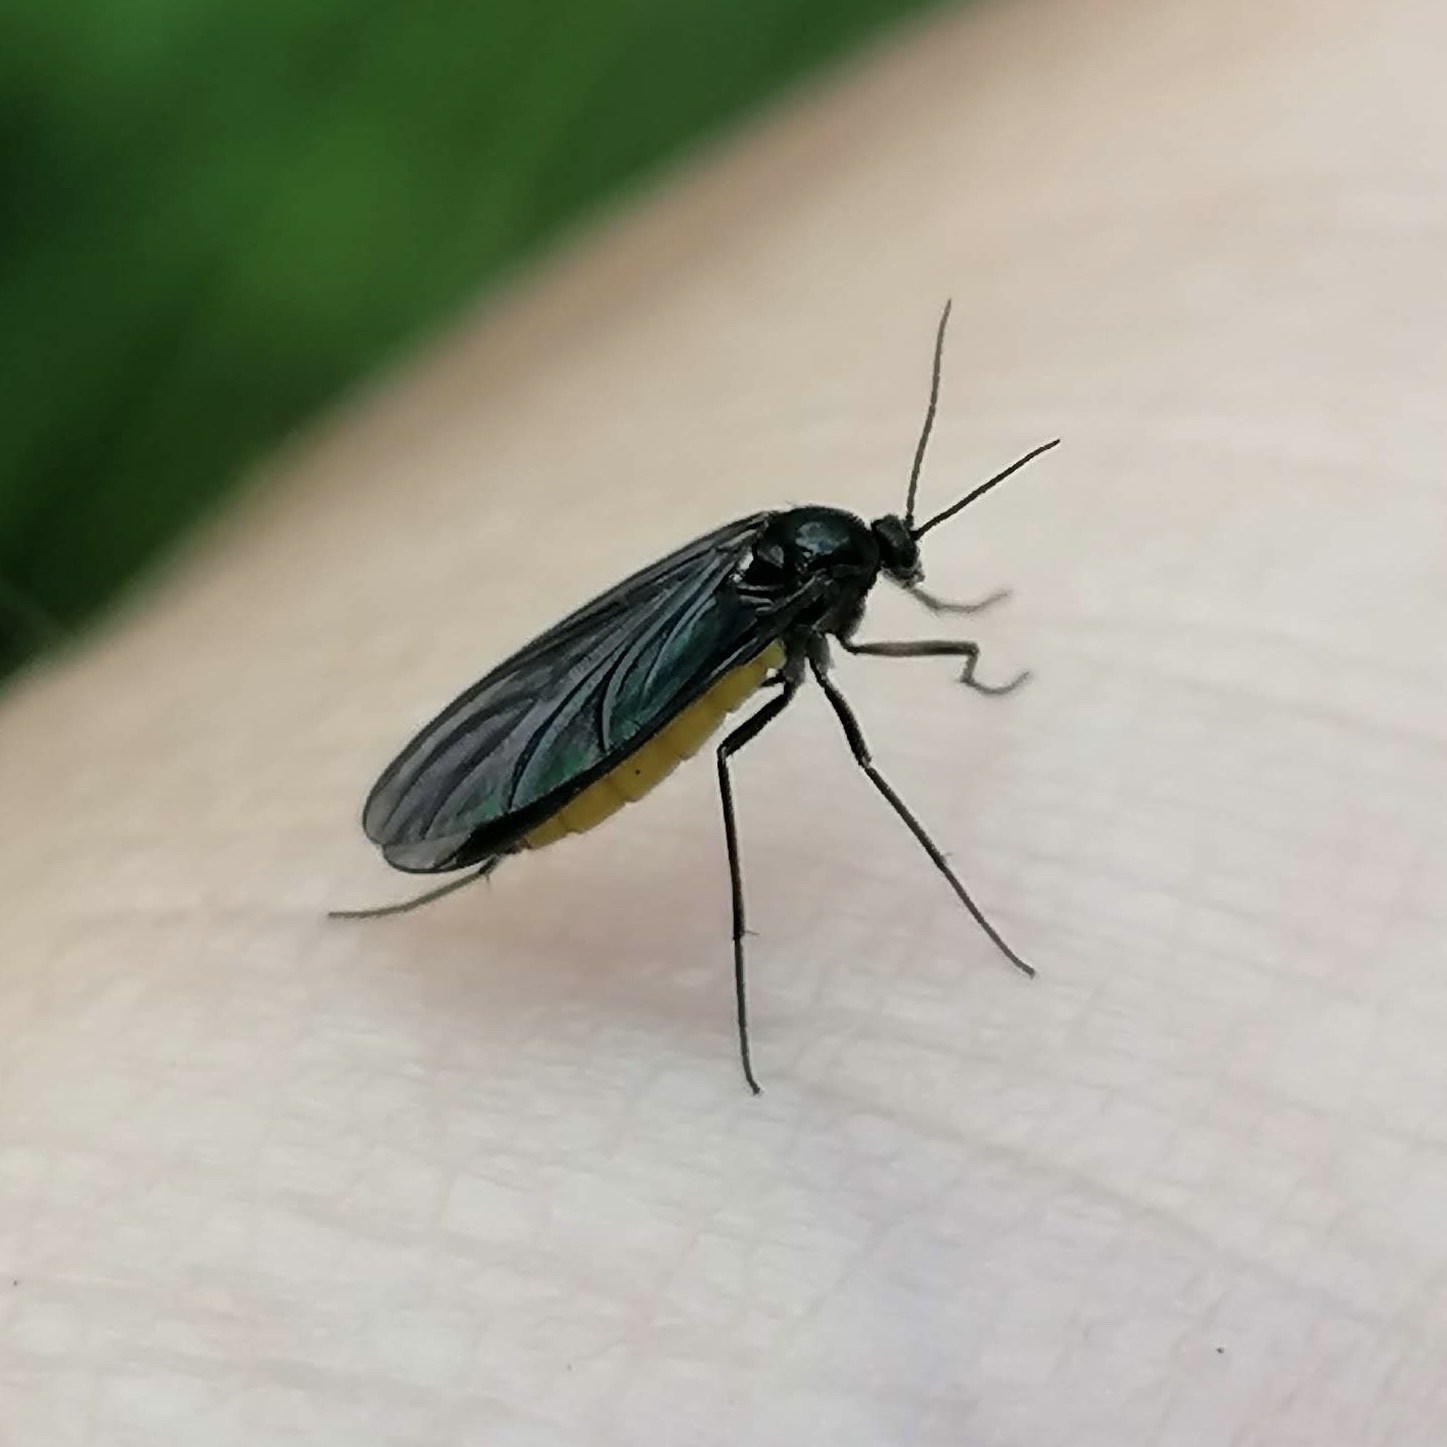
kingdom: Animalia
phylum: Arthropoda
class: Insecta
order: Diptera
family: Sciaridae
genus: Sciara
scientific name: Sciara hemerobioides
